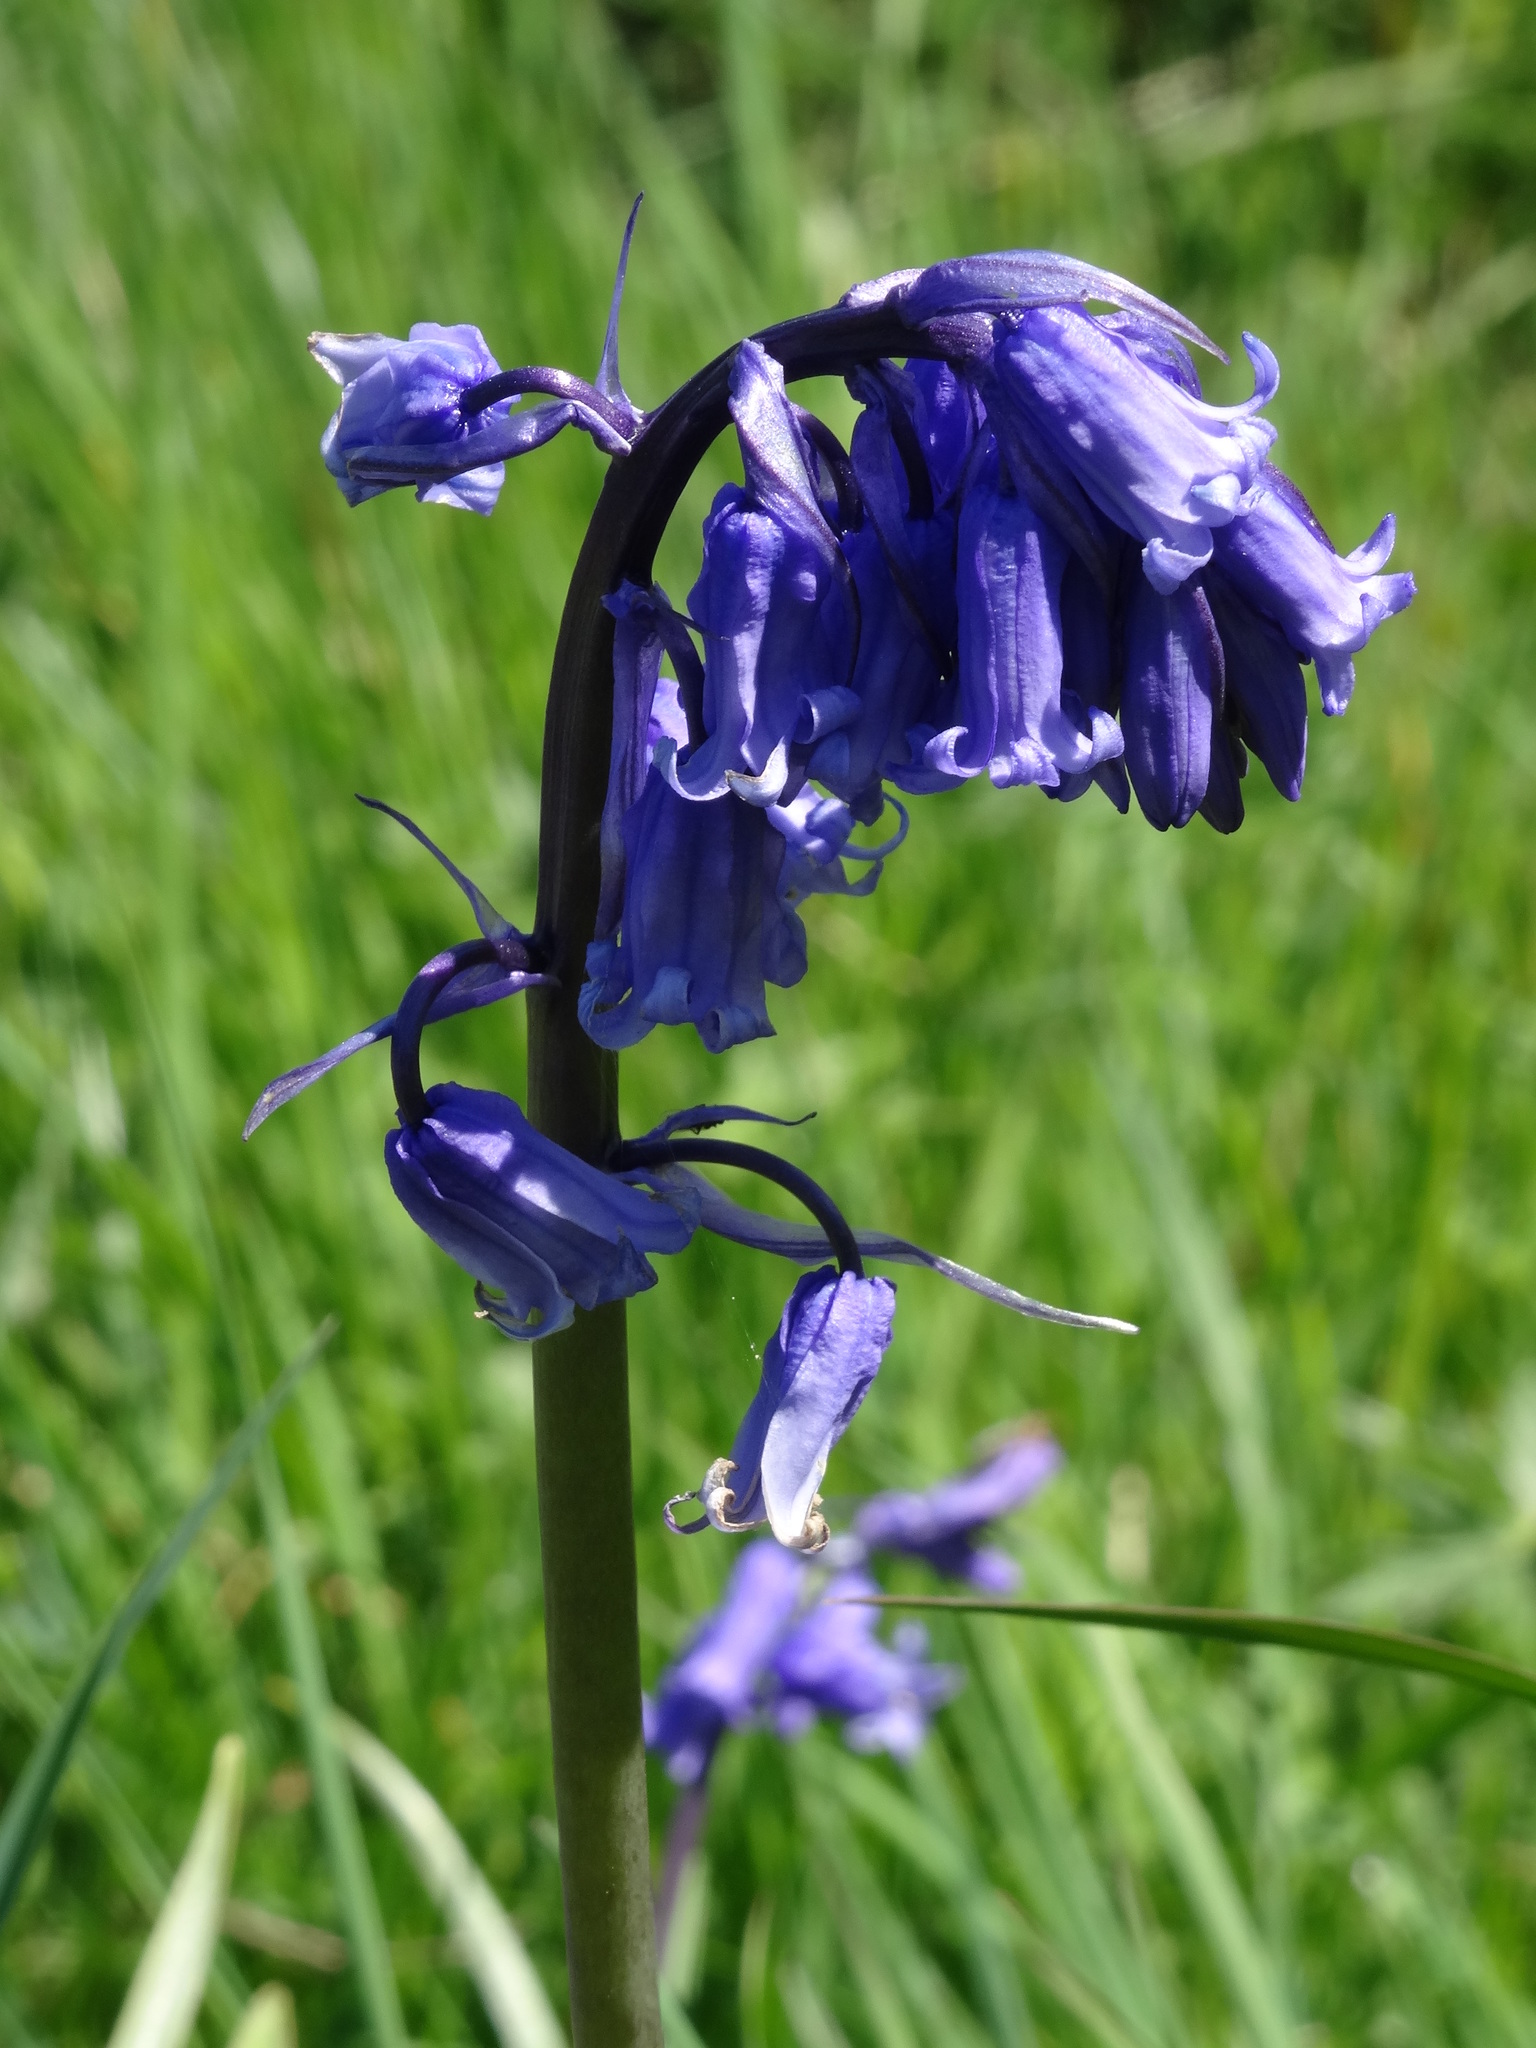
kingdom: Plantae
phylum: Tracheophyta
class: Liliopsida
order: Asparagales
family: Asparagaceae
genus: Hyacinthoides
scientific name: Hyacinthoides non-scripta
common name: Bluebell
